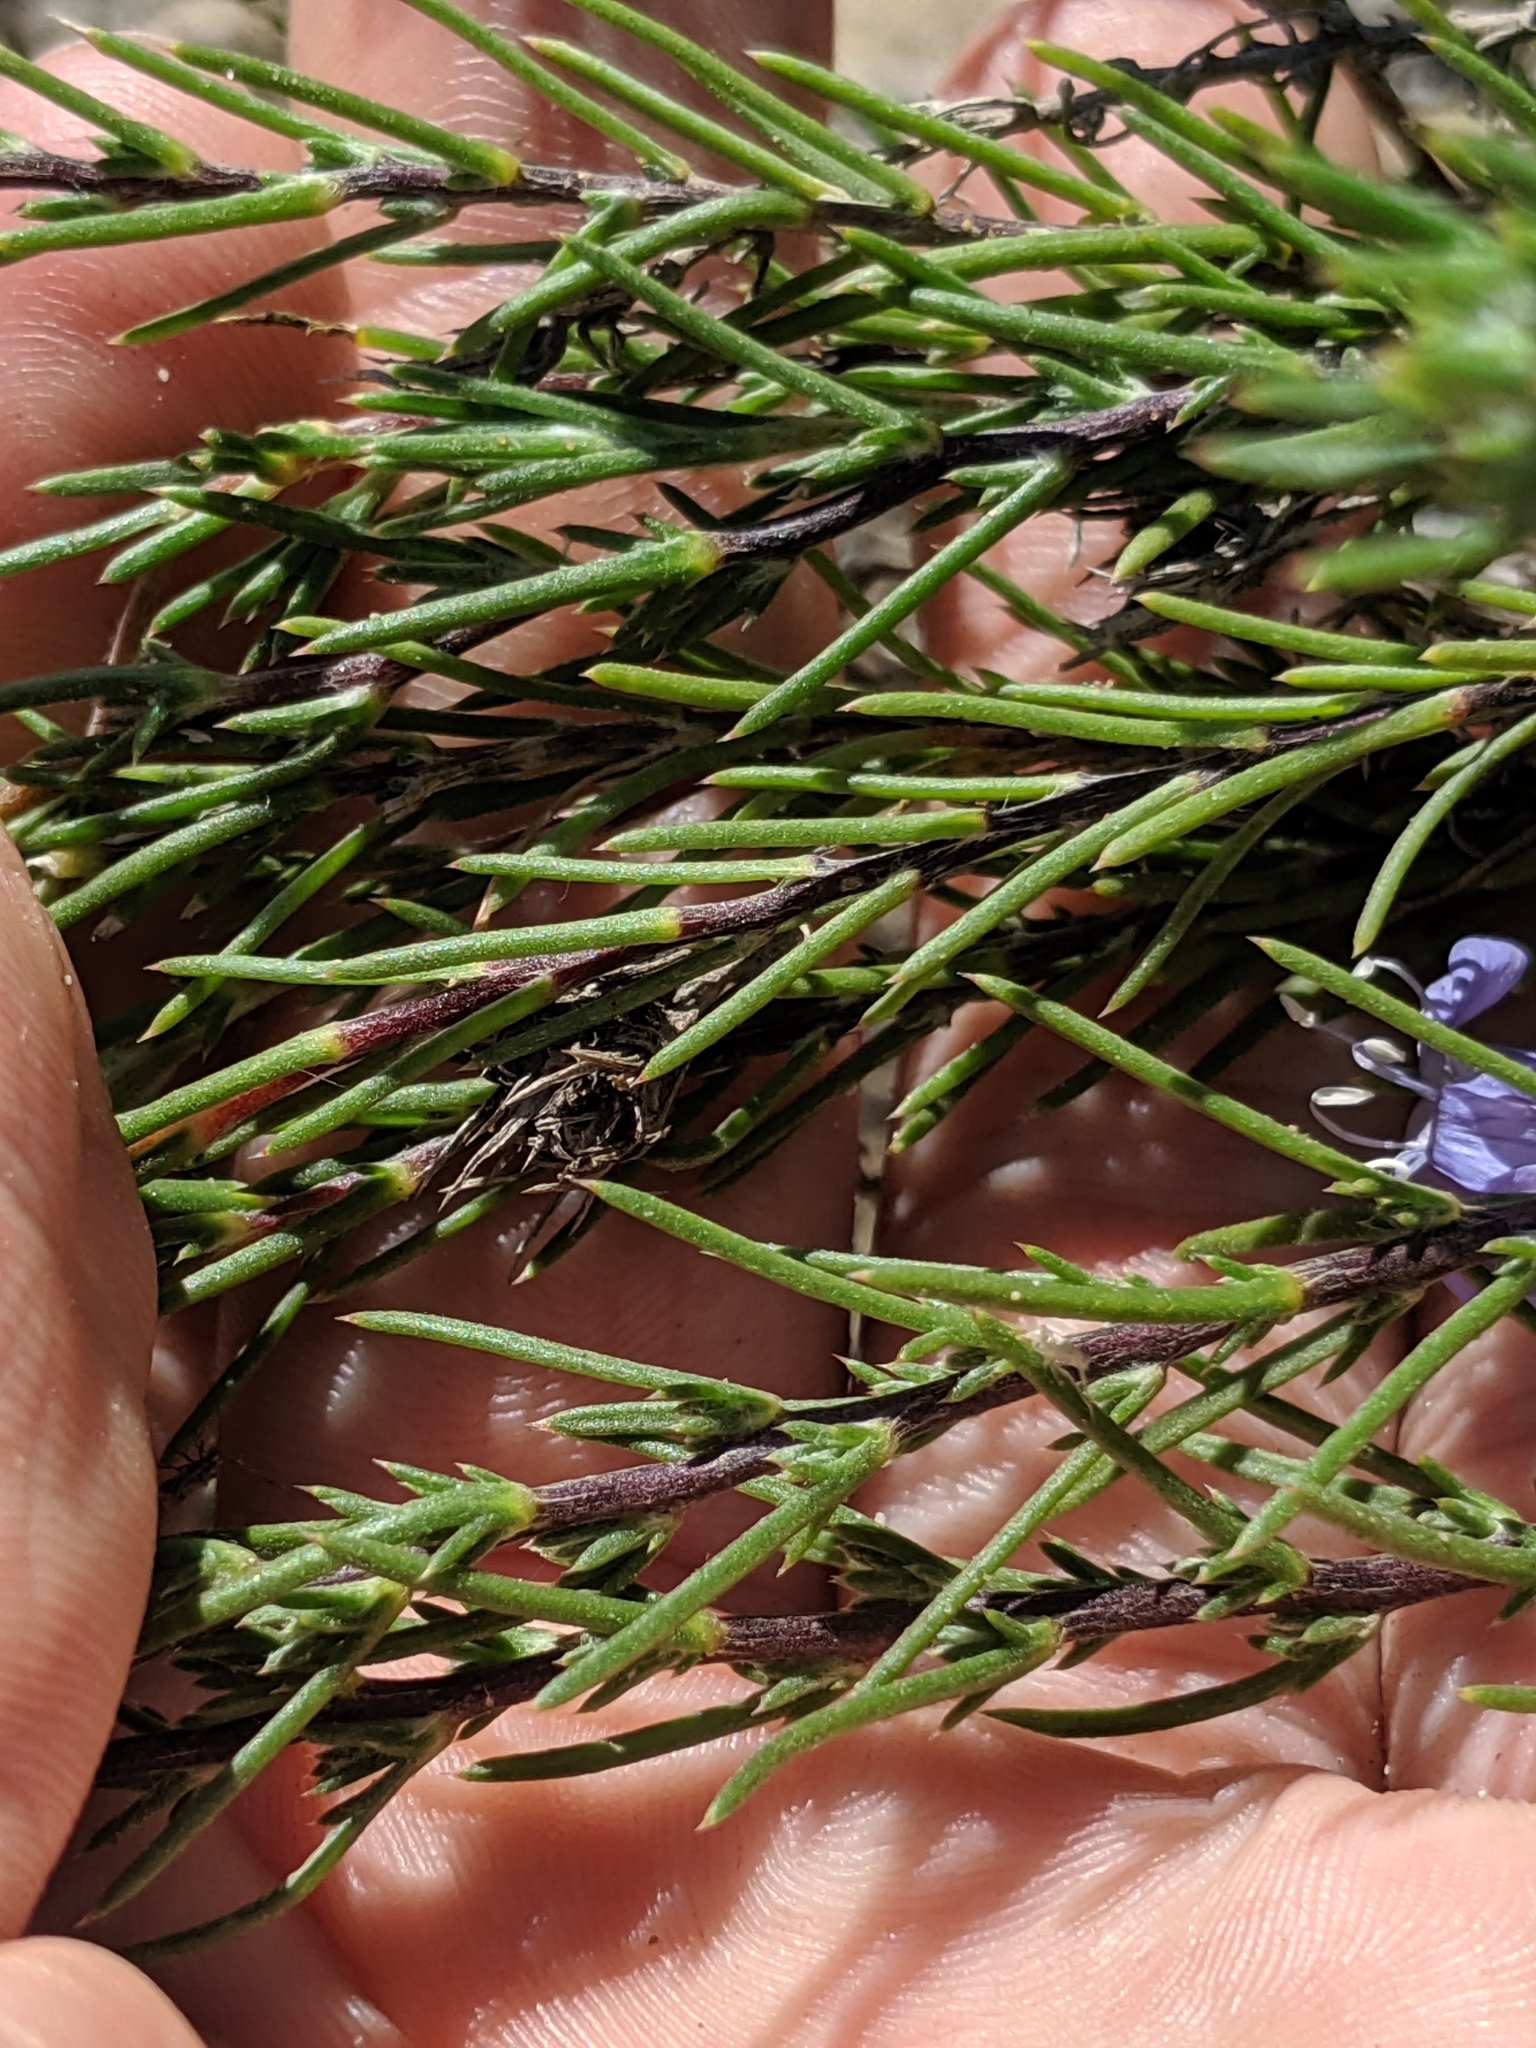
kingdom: Plantae
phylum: Tracheophyta
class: Magnoliopsida
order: Ericales
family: Polemoniaceae
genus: Eriastrum
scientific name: Eriastrum densifolium
